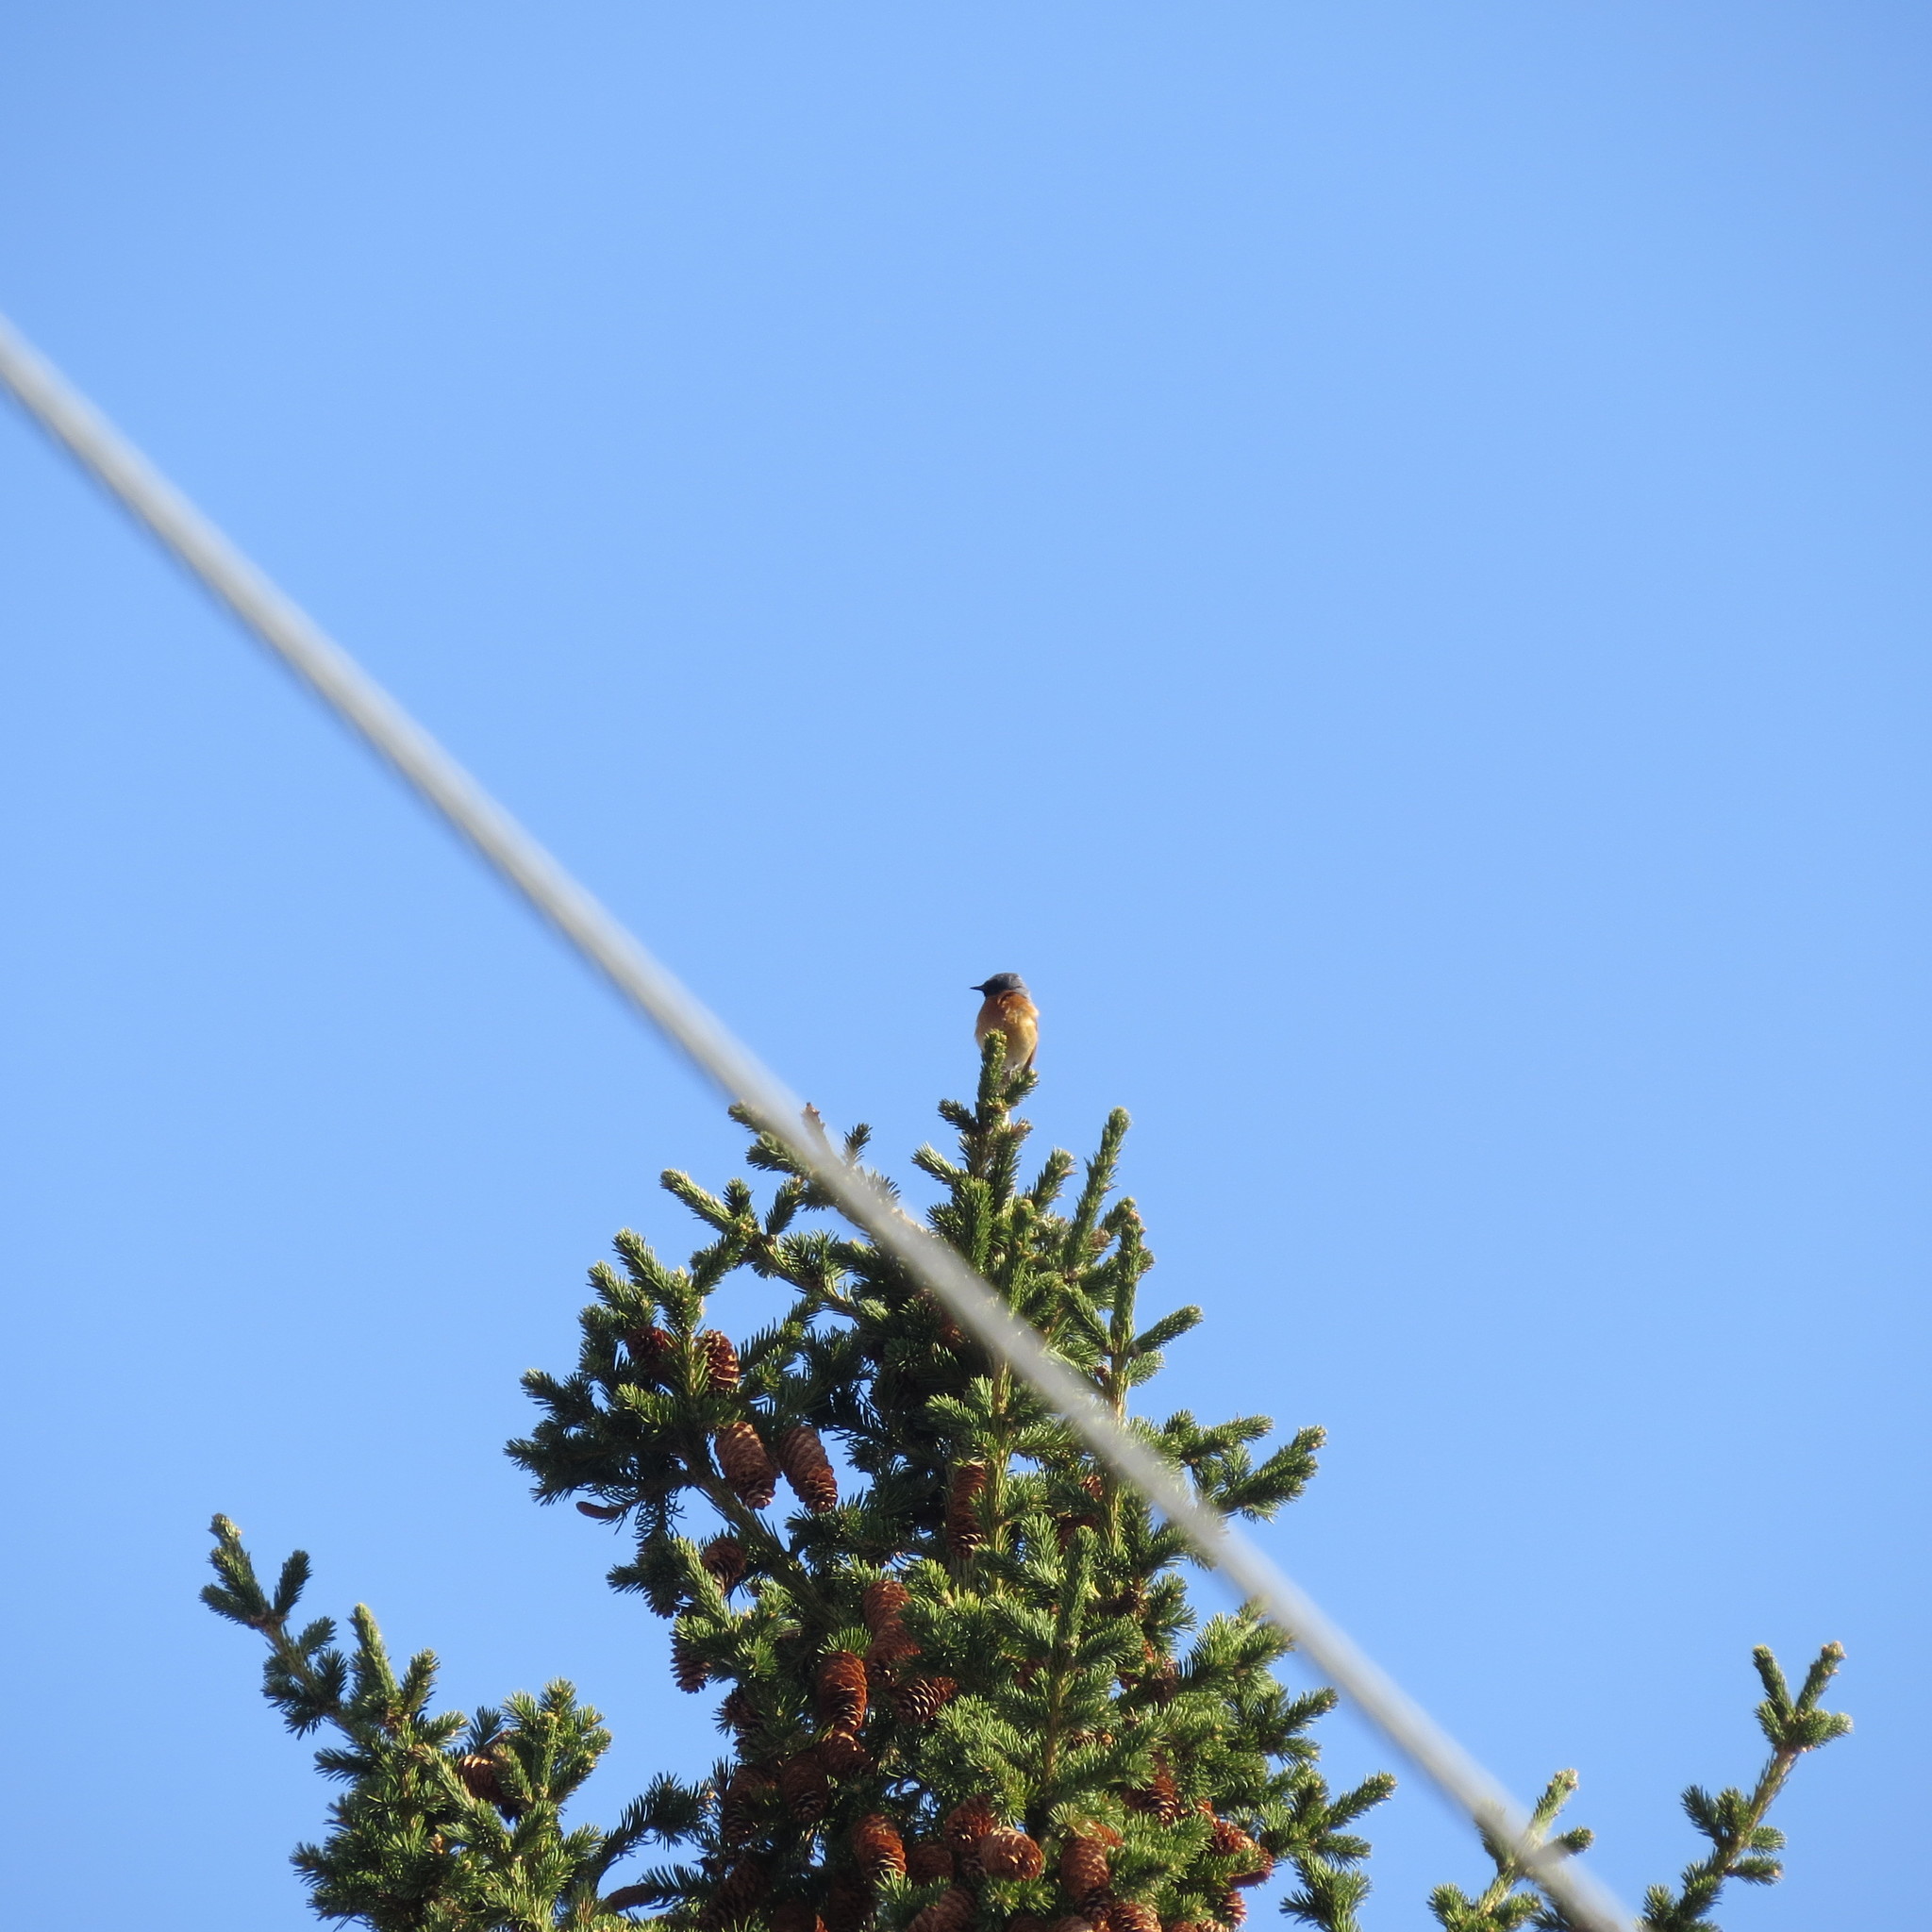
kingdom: Animalia
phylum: Chordata
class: Aves
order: Passeriformes
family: Muscicapidae
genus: Phoenicurus
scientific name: Phoenicurus phoenicurus
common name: Common redstart
